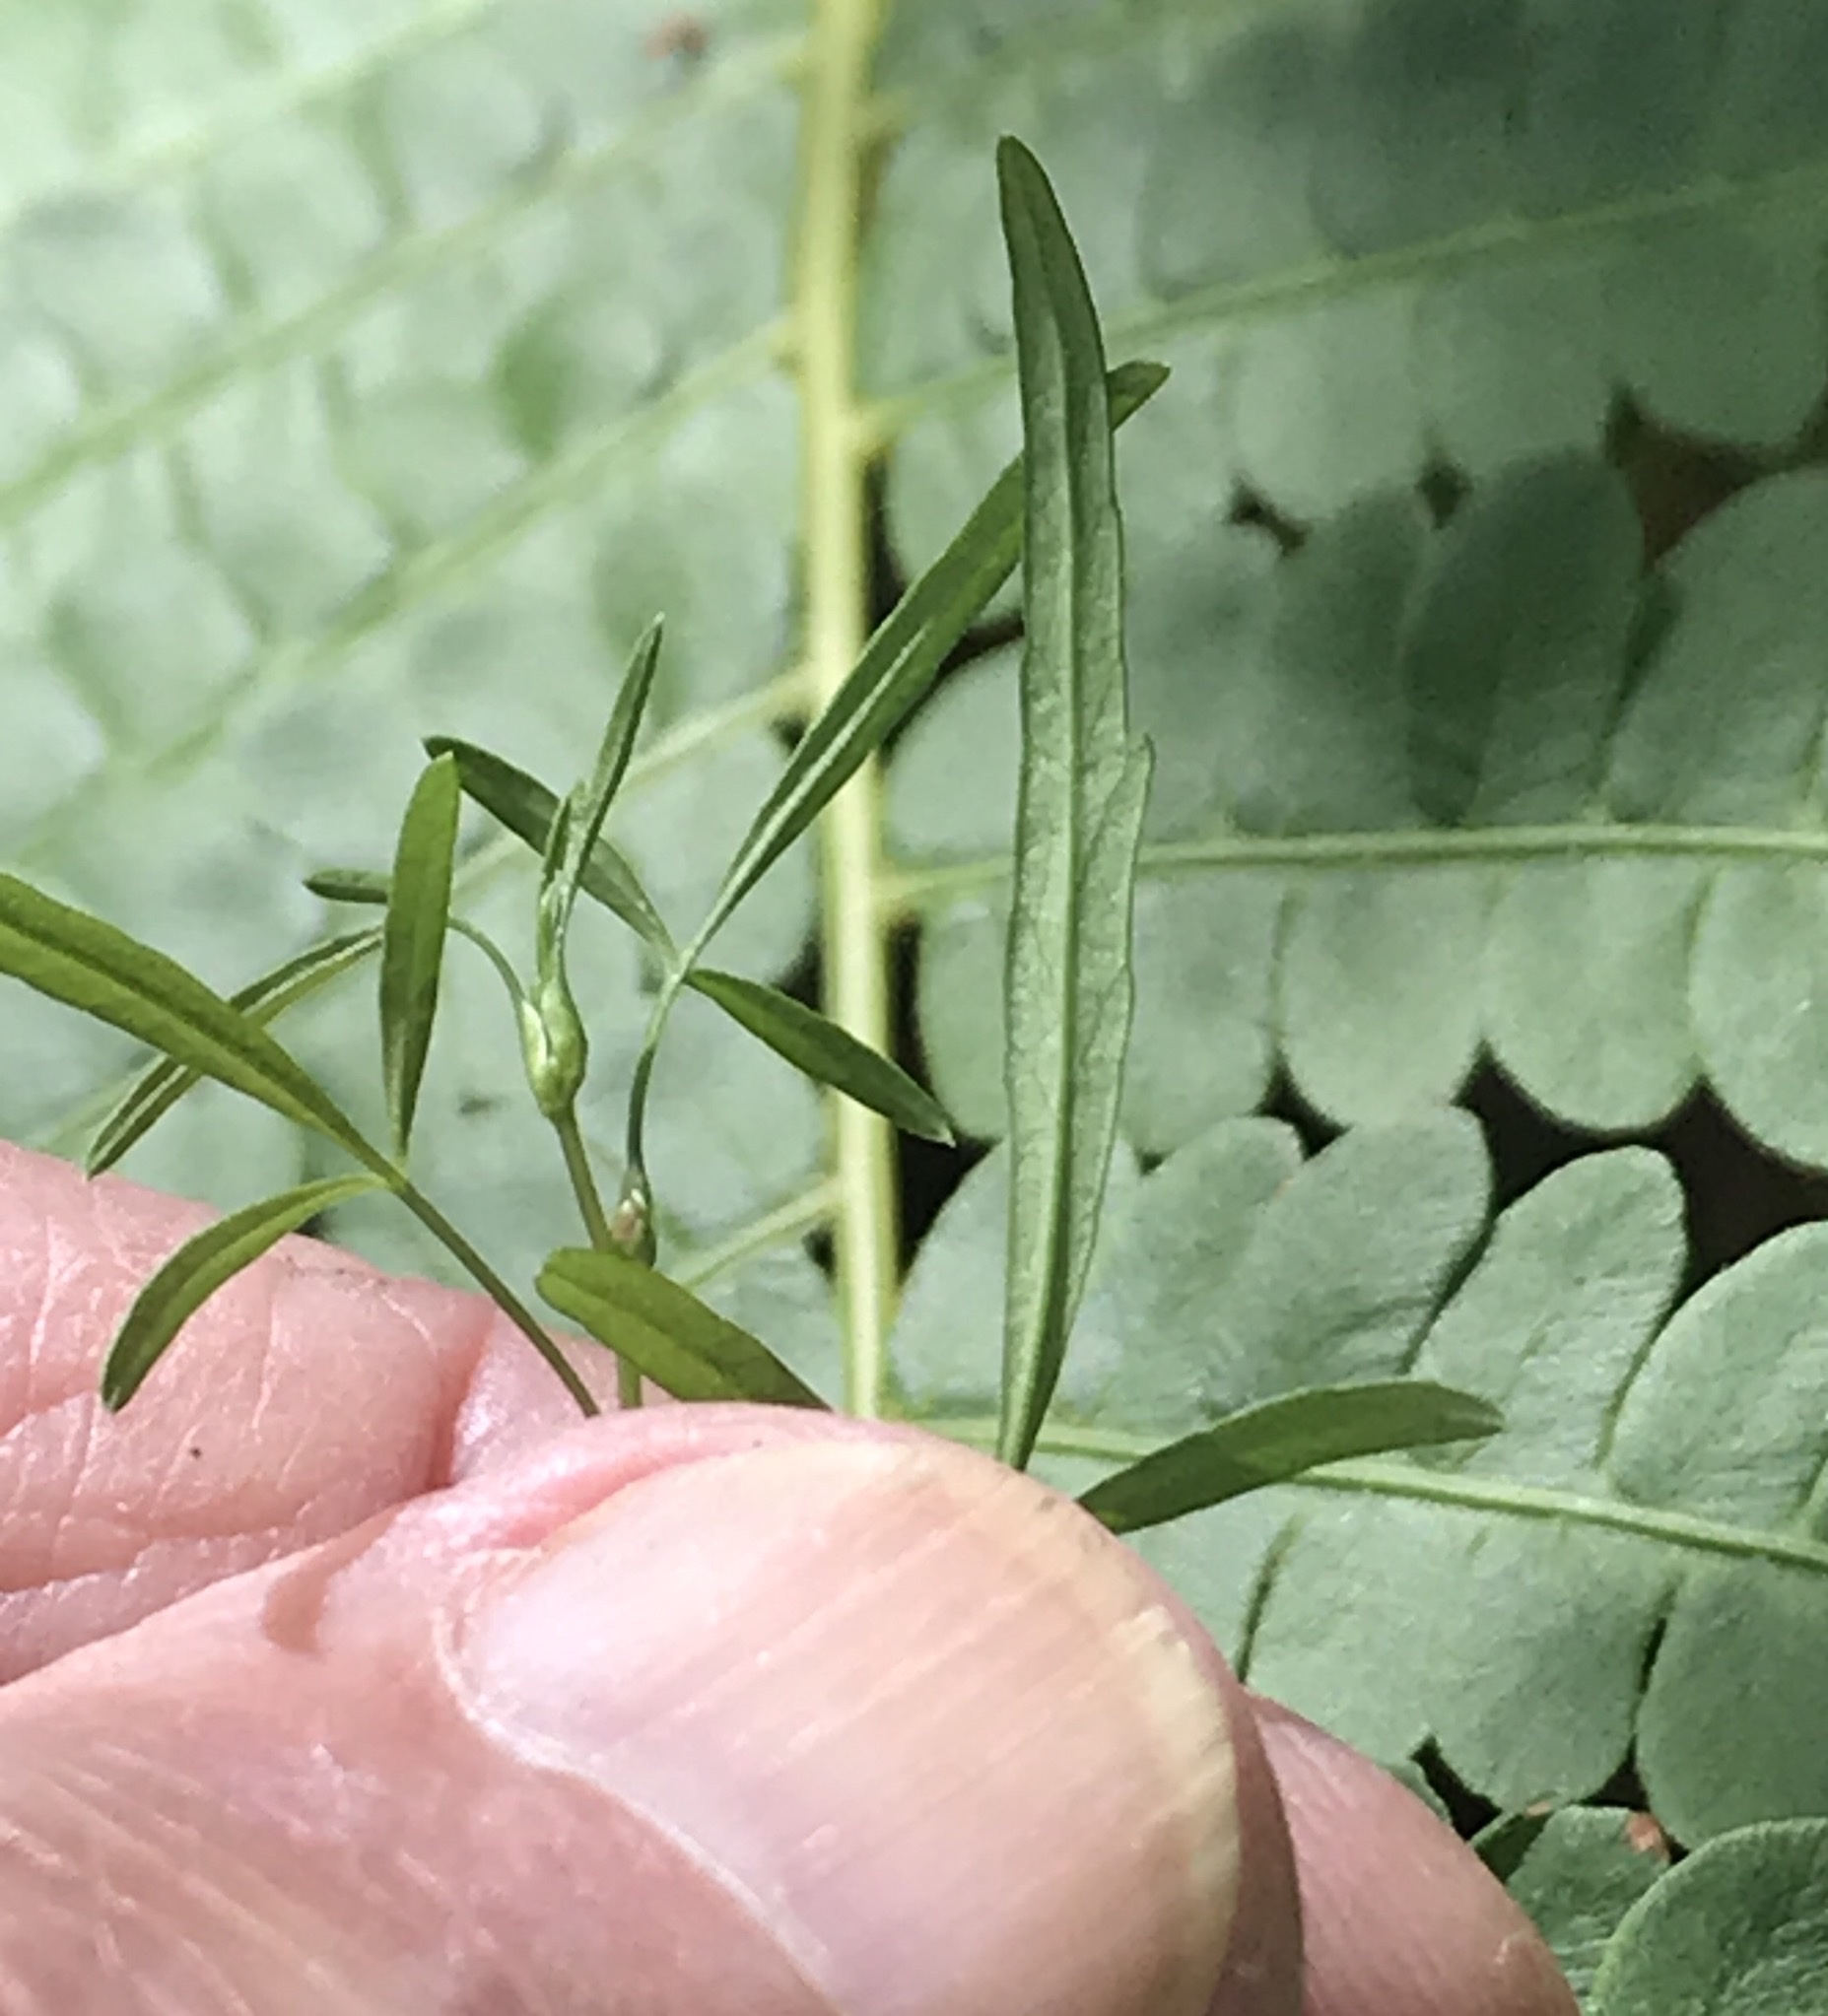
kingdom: Plantae
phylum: Tracheophyta
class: Magnoliopsida
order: Apiales
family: Apiaceae
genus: Cicuta
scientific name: Cicuta bulbifera
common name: Bulb-bearing water-hemlock
